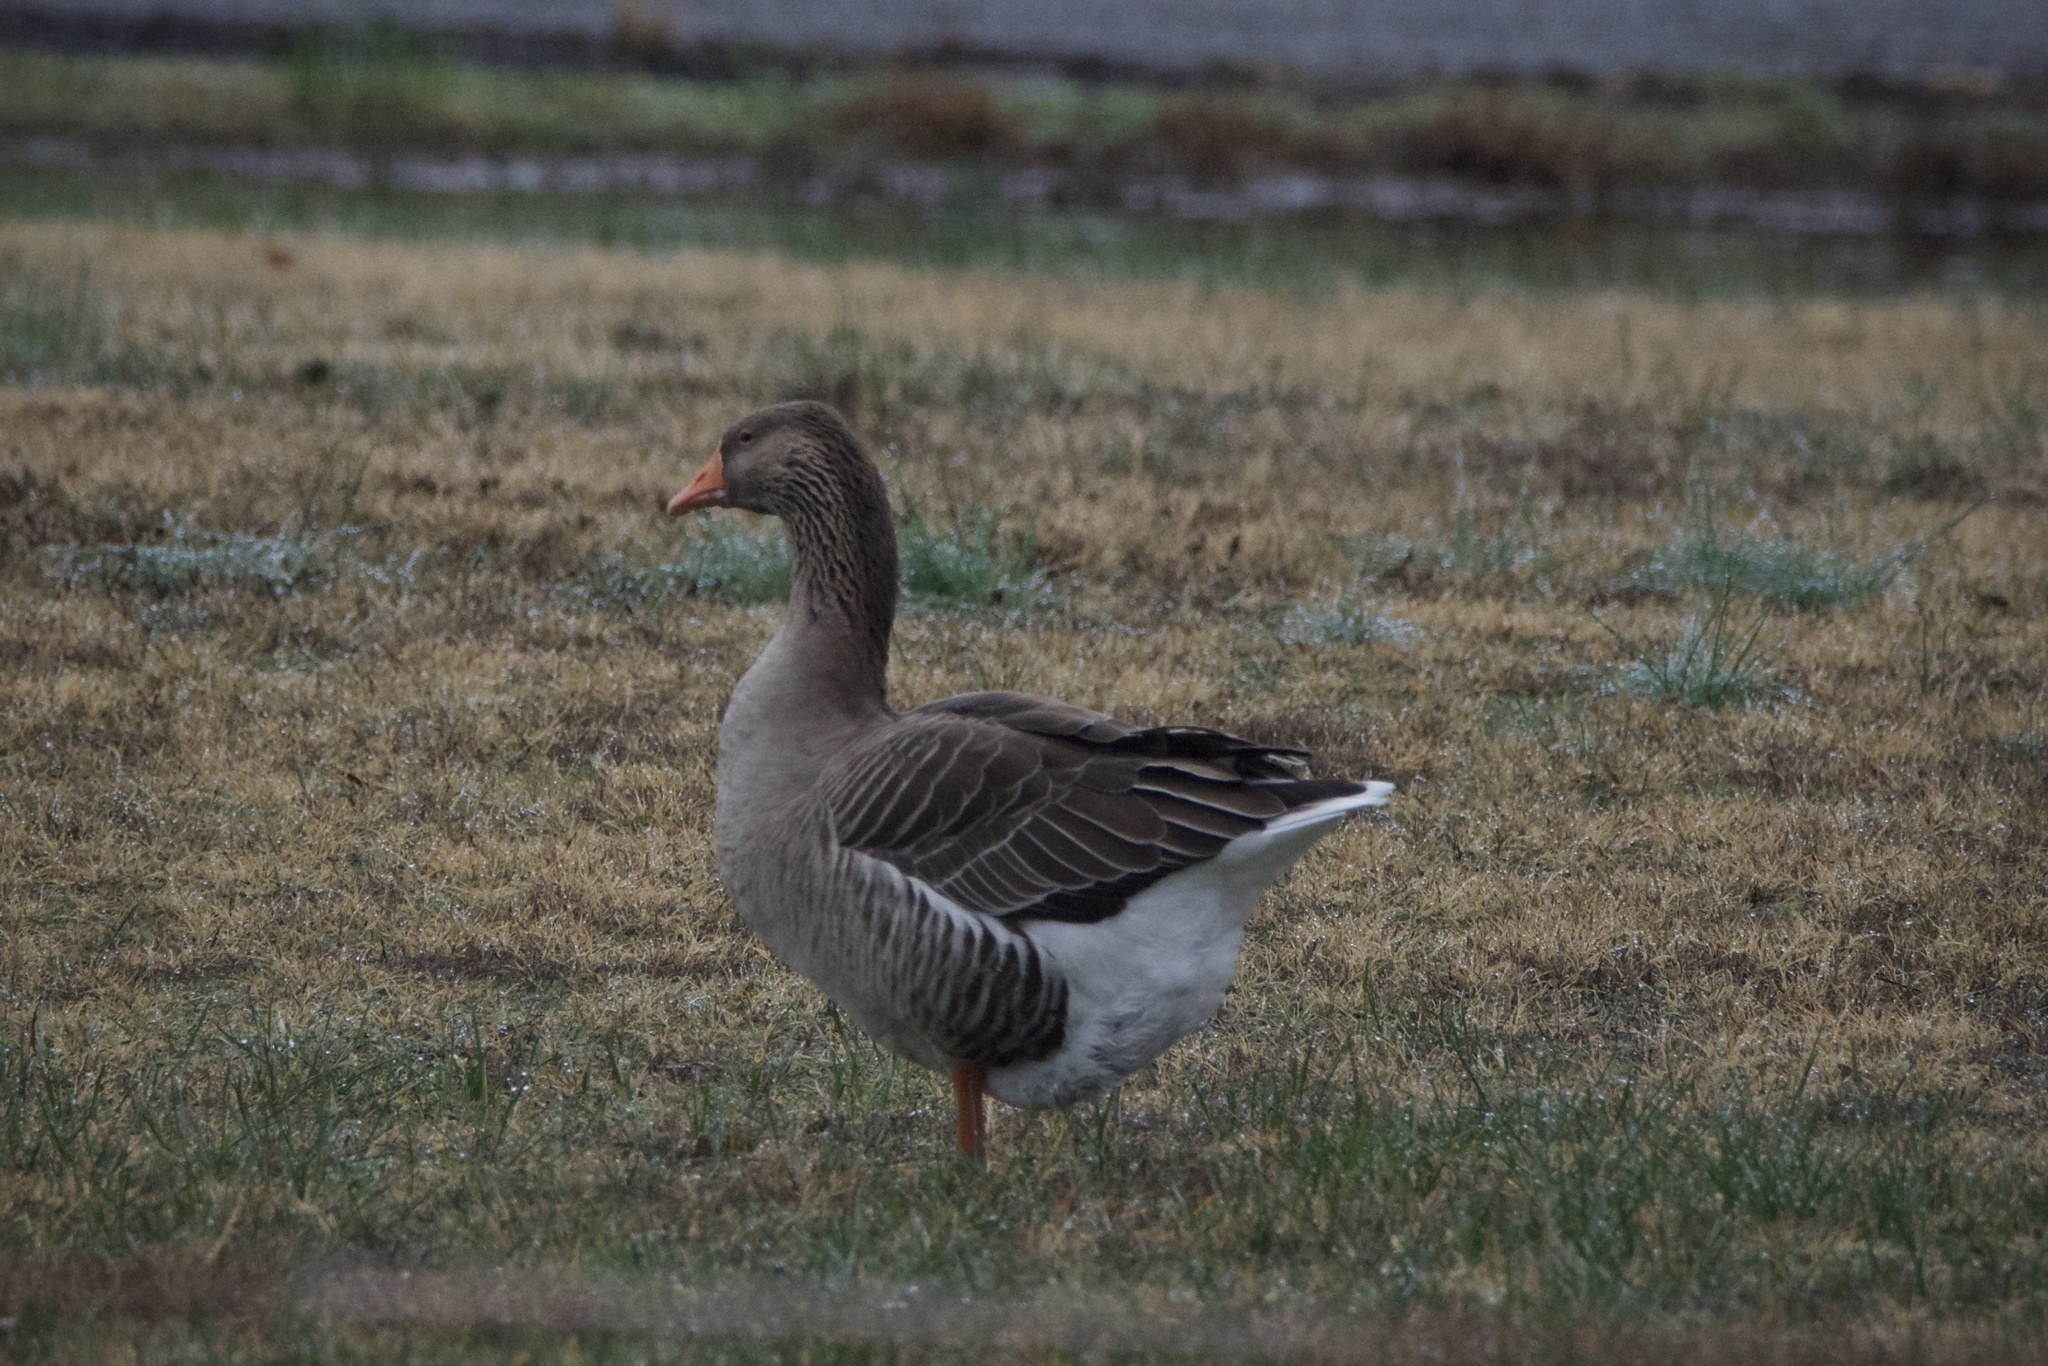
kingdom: Animalia
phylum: Chordata
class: Aves
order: Anseriformes
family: Anatidae
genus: Anser
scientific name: Anser anser
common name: Greylag goose
